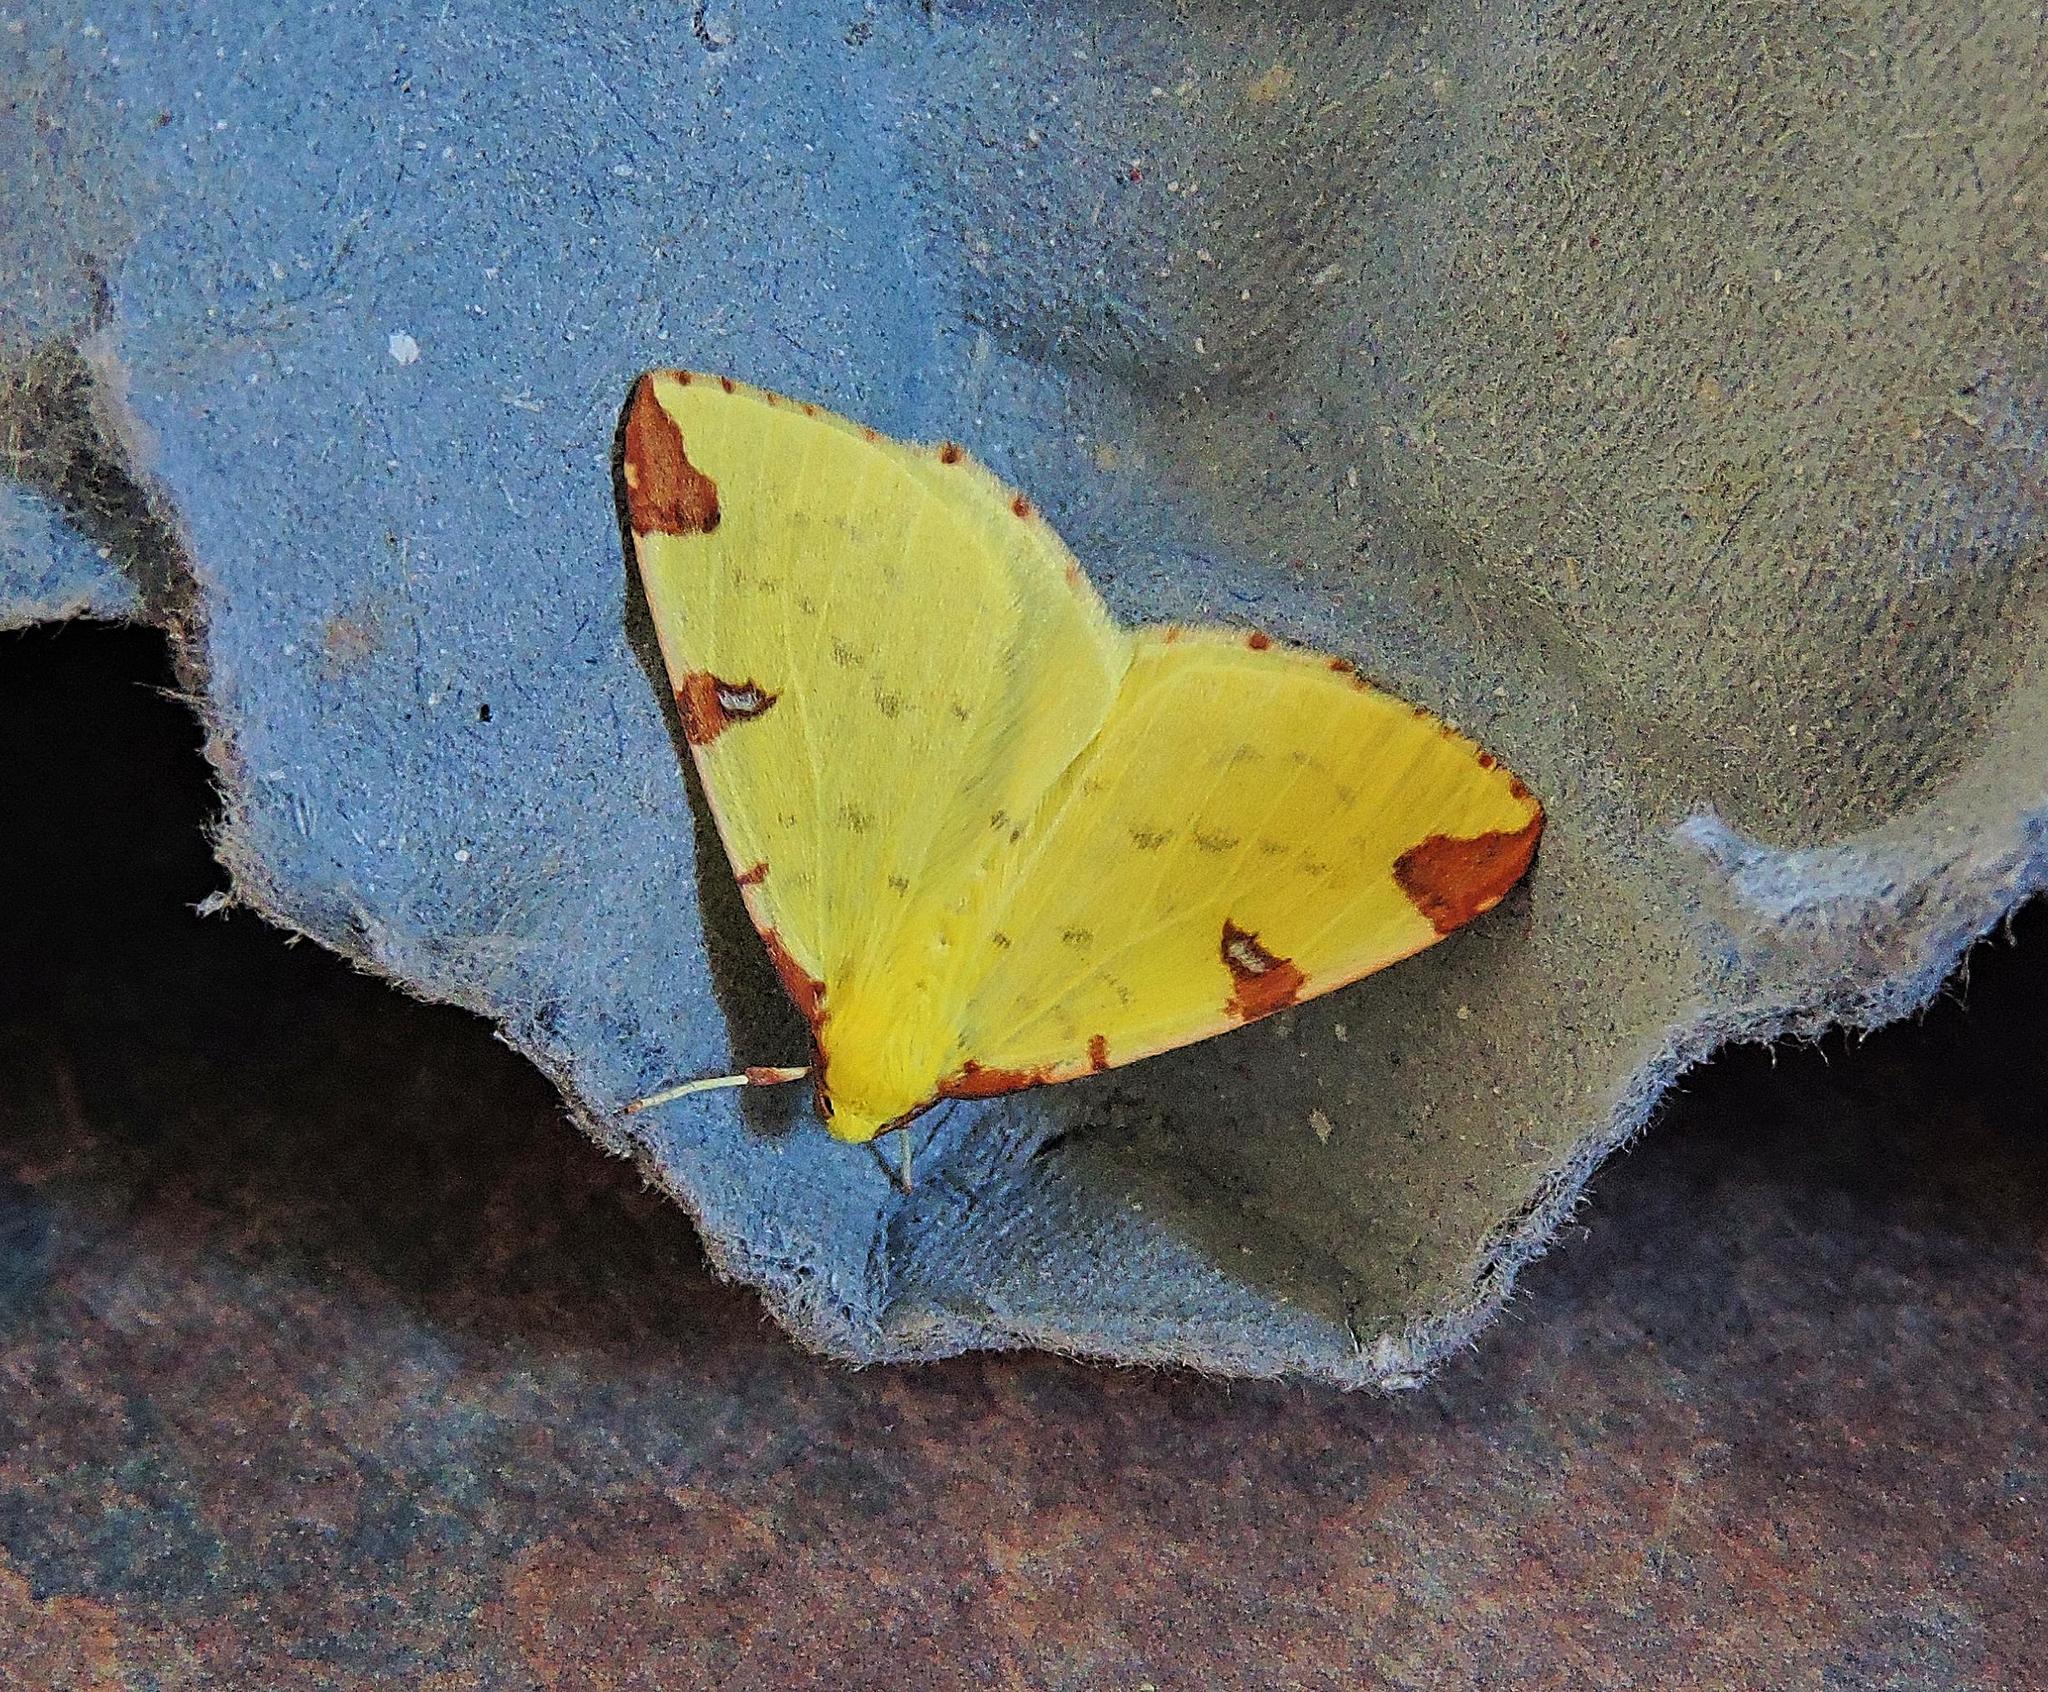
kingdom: Animalia
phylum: Arthropoda
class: Insecta
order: Lepidoptera
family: Geometridae
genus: Opisthograptis
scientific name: Opisthograptis luteolata
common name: Brimstone moth
